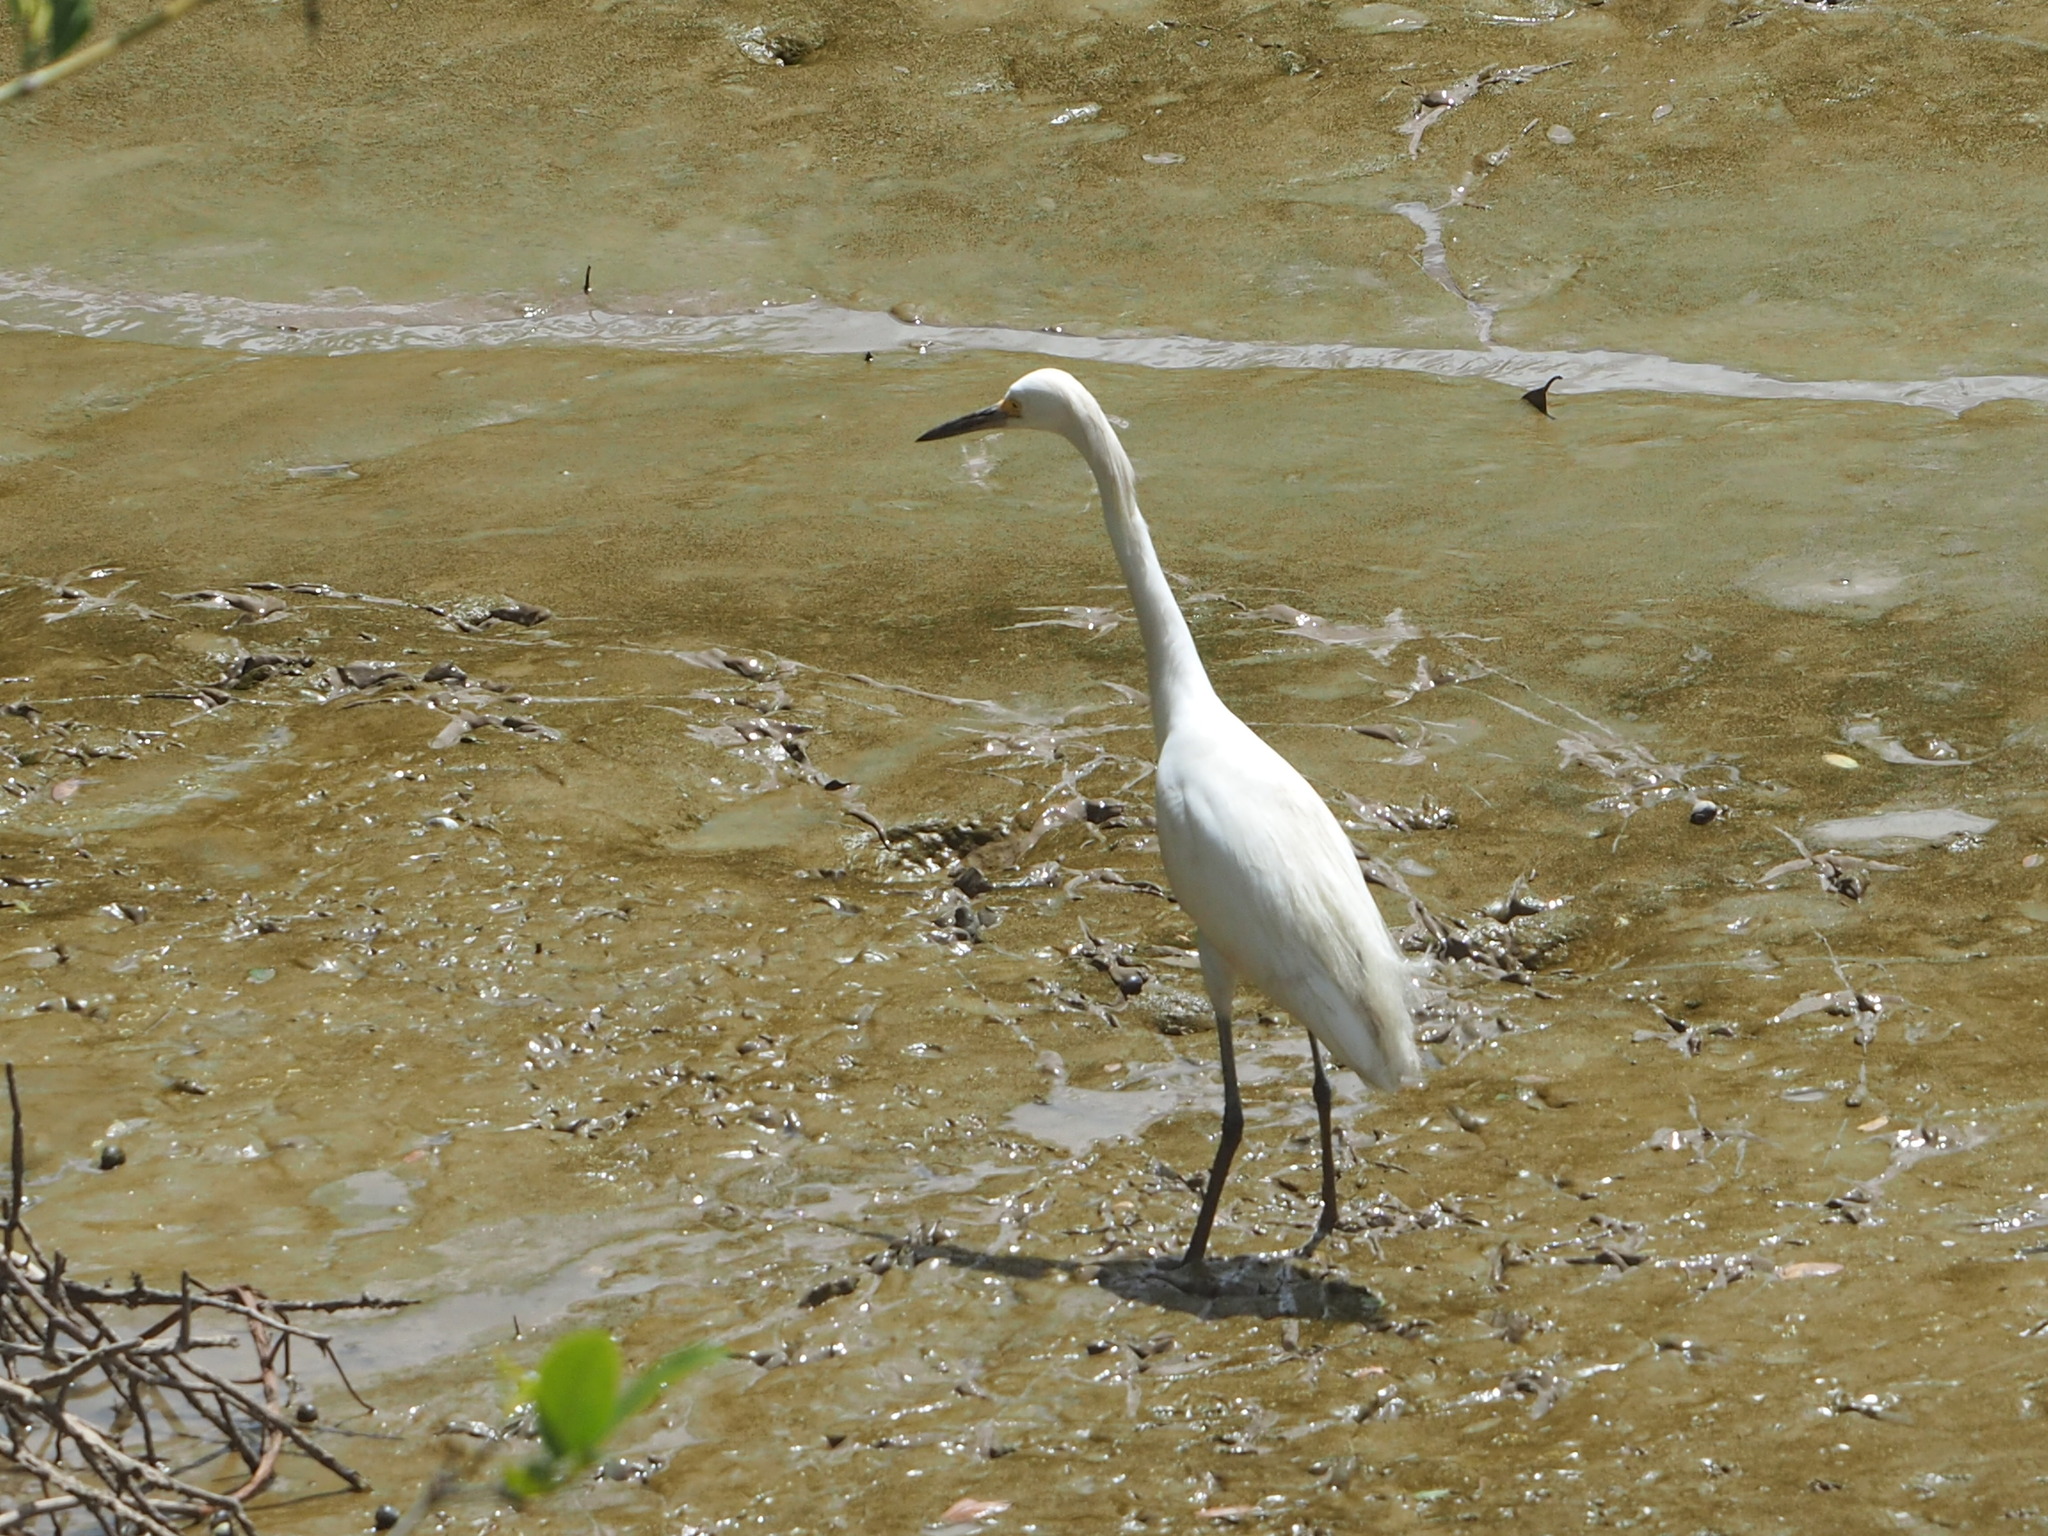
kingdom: Animalia
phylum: Chordata
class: Aves
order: Pelecaniformes
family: Ardeidae
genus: Egretta
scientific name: Egretta thula
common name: Snowy egret
